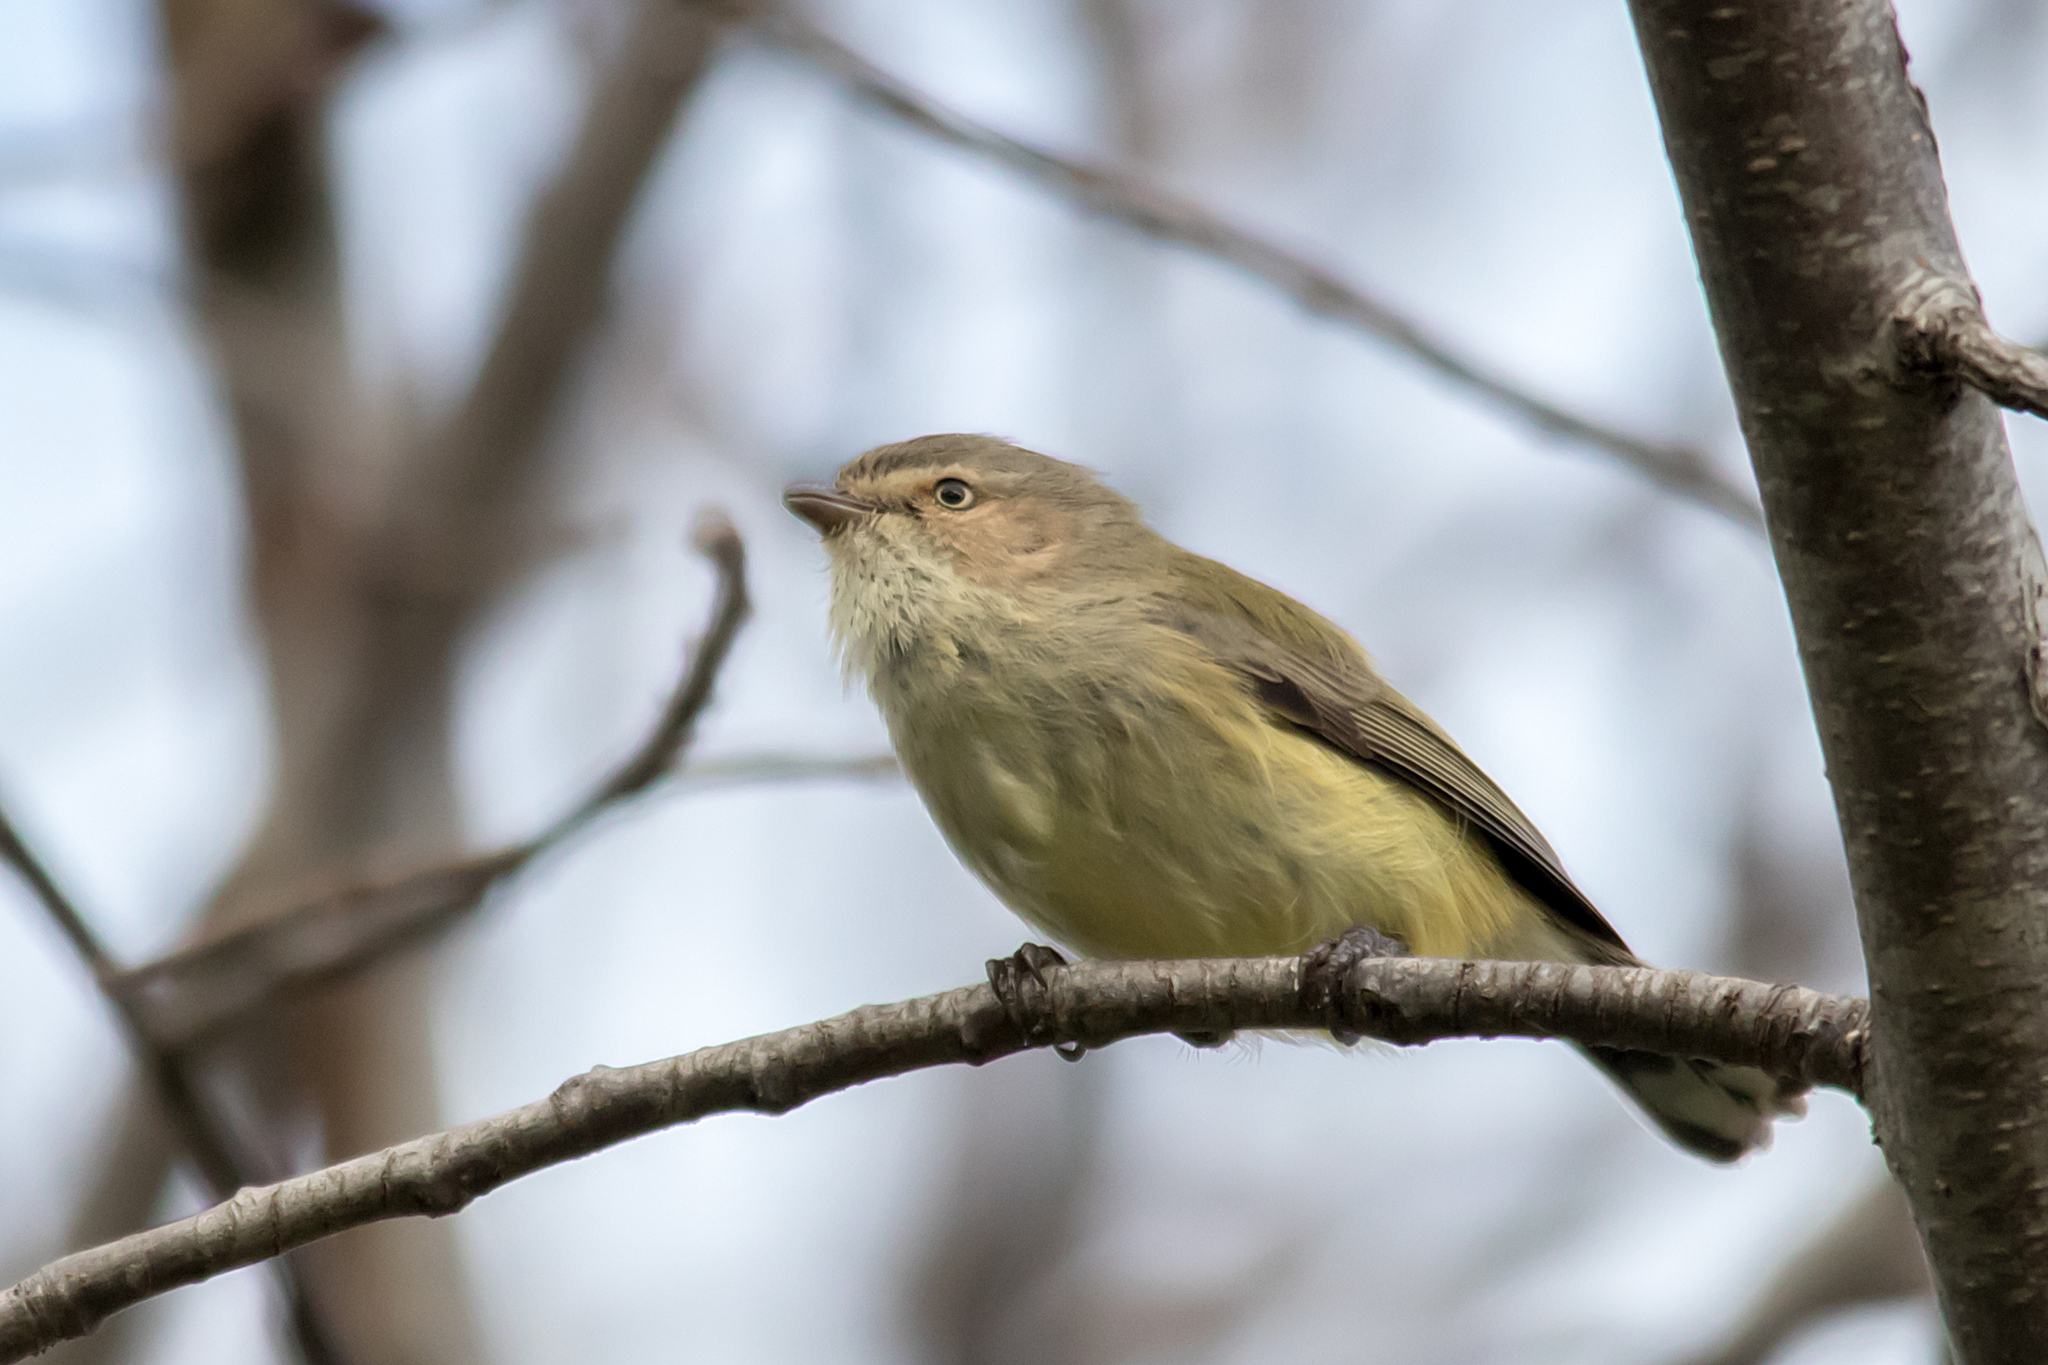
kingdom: Animalia
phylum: Chordata
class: Aves
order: Passeriformes
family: Acanthizidae
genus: Smicrornis
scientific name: Smicrornis brevirostris
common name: Weebill
